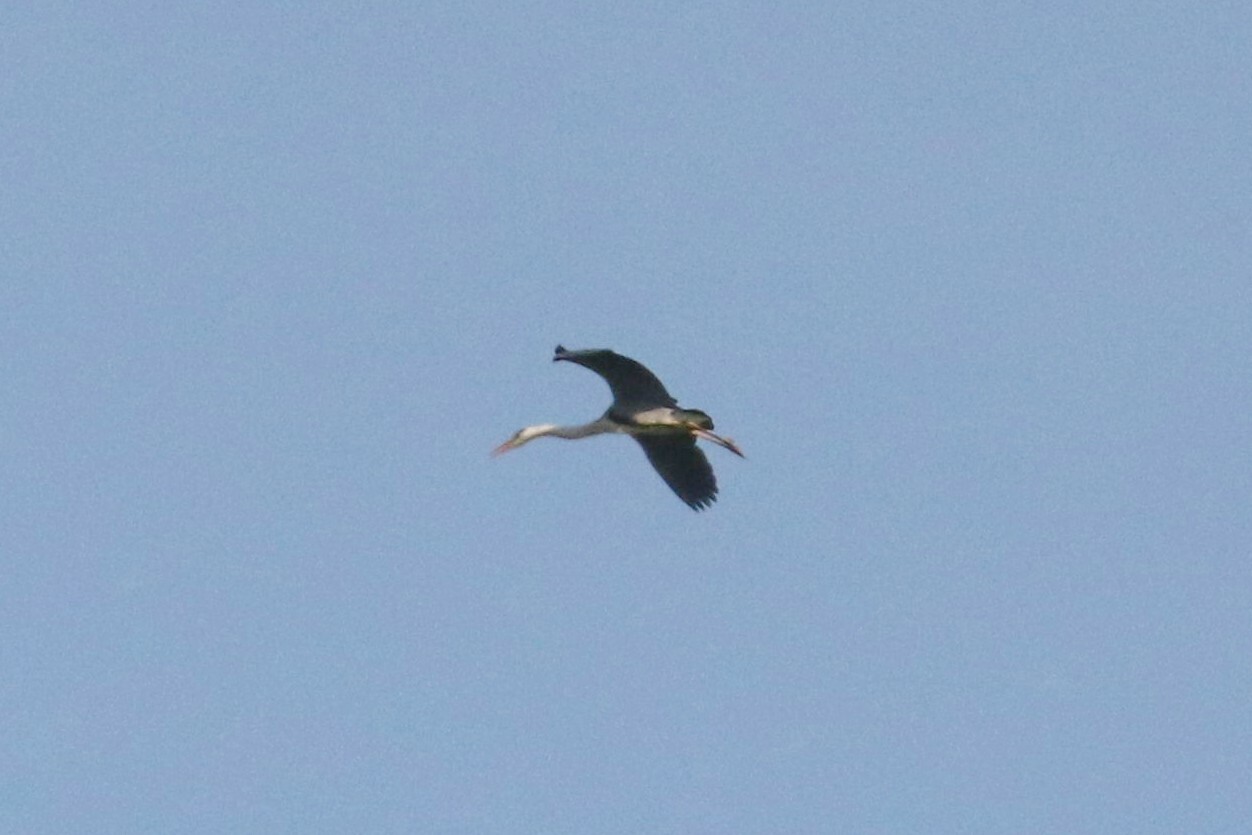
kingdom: Animalia
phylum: Chordata
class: Aves
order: Pelecaniformes
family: Ardeidae
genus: Ardea
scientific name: Ardea cinerea
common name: Grey heron
